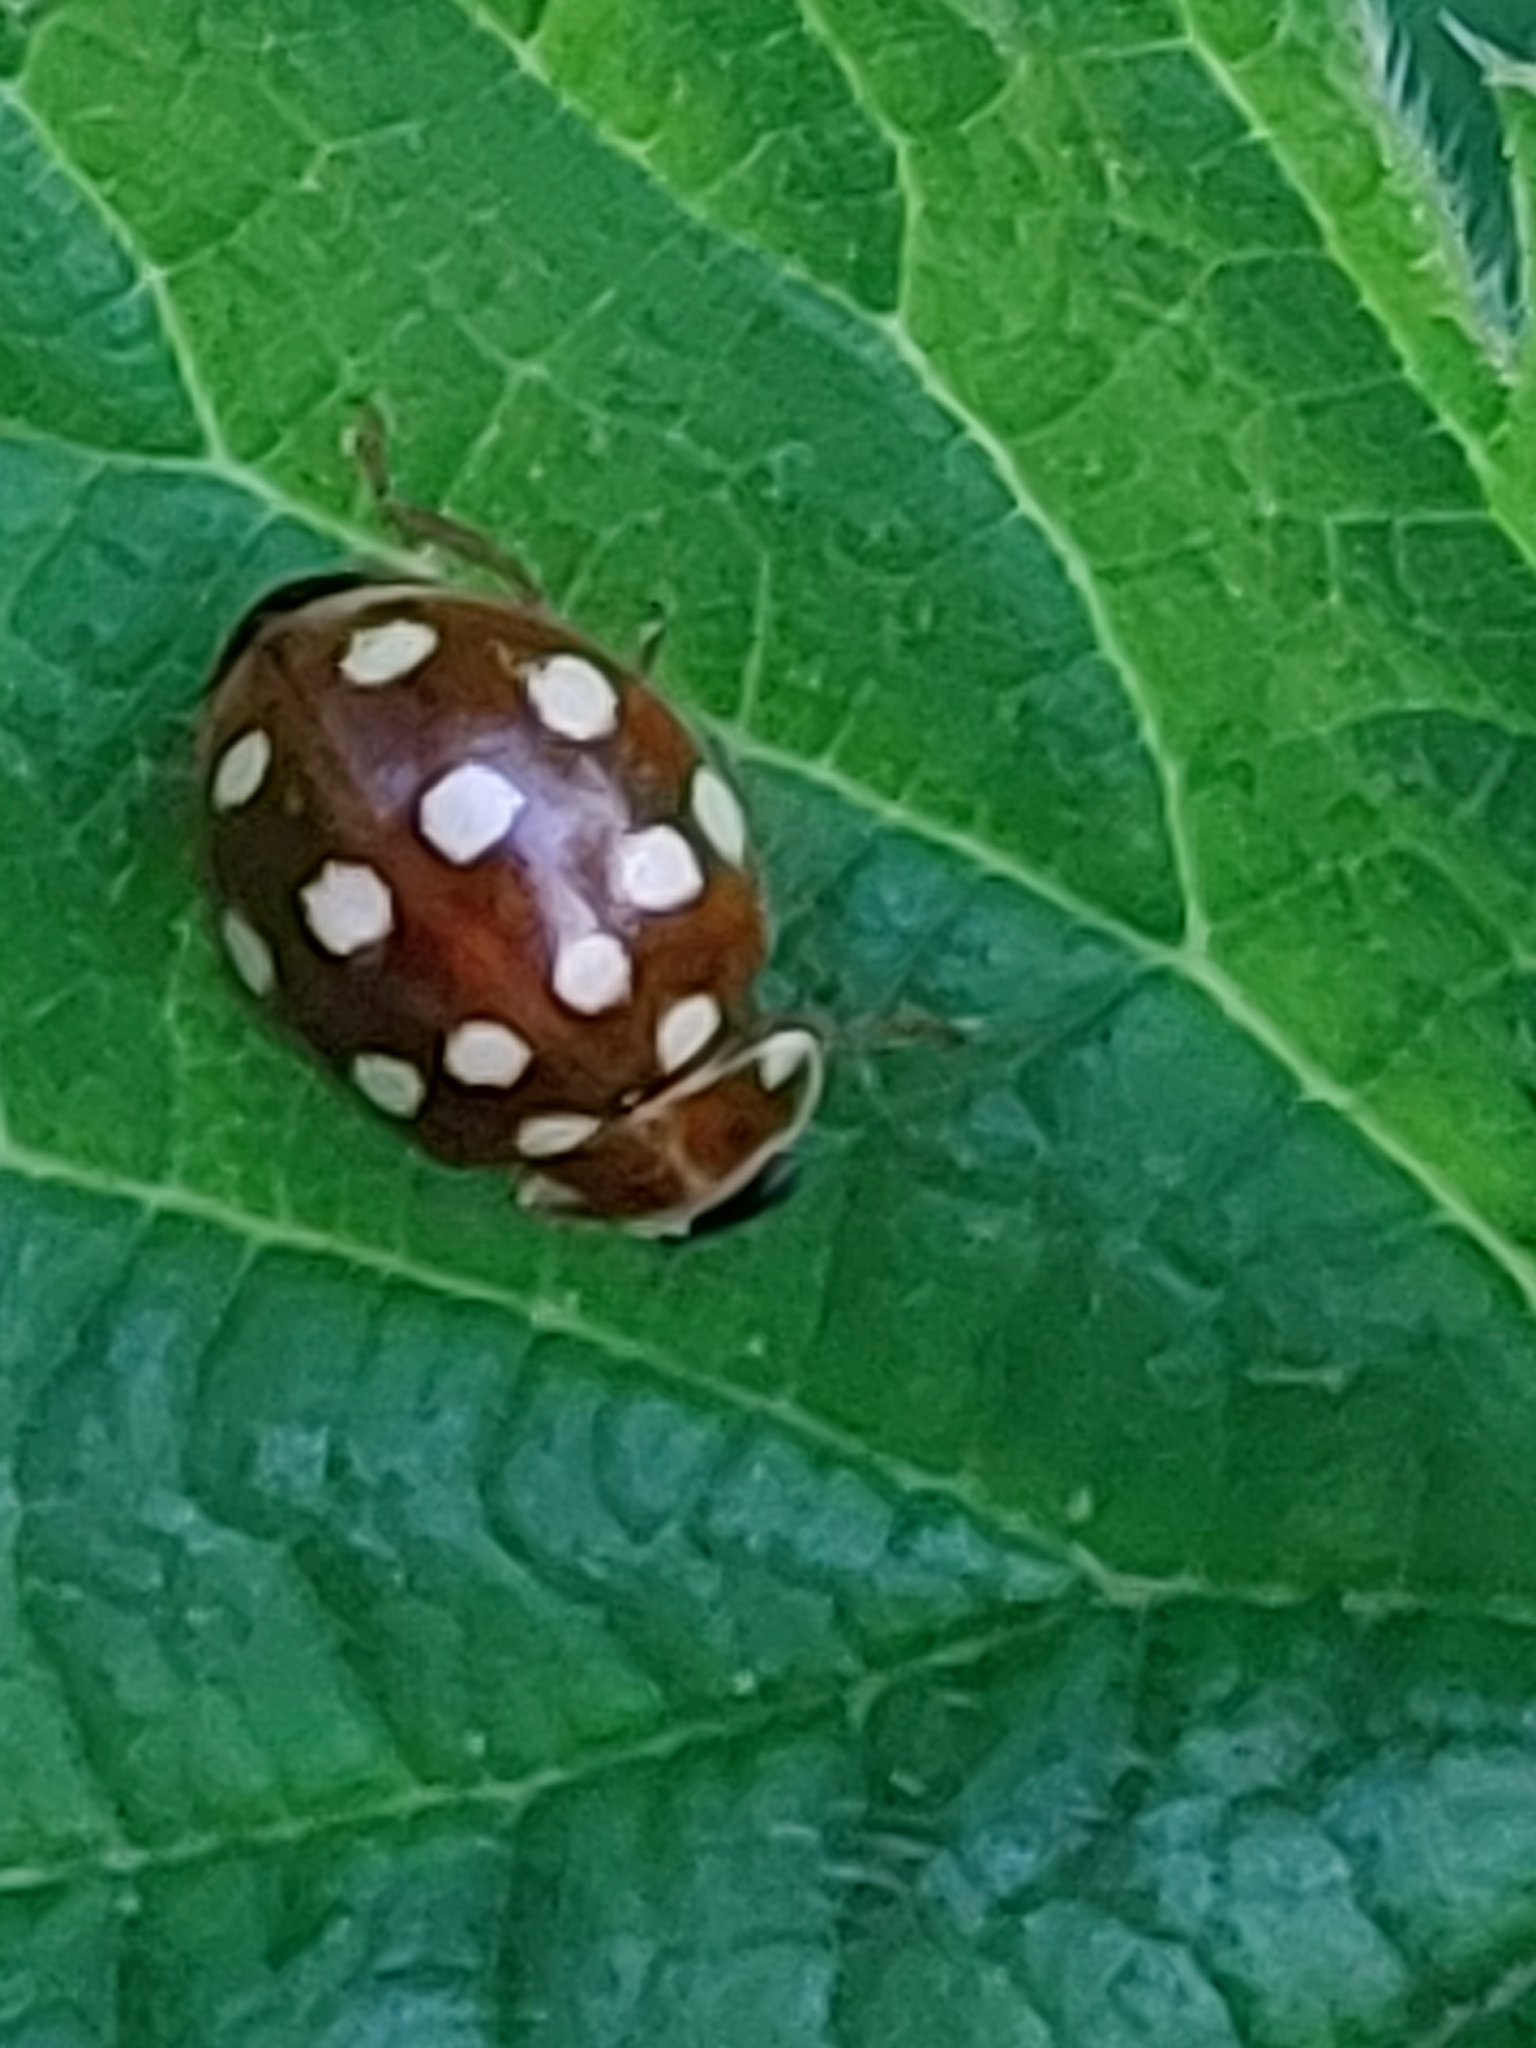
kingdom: Animalia
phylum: Arthropoda
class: Insecta
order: Coleoptera
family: Coccinellidae
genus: Calvia
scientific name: Calvia quatuordecimguttata
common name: Cream-spot ladybird
